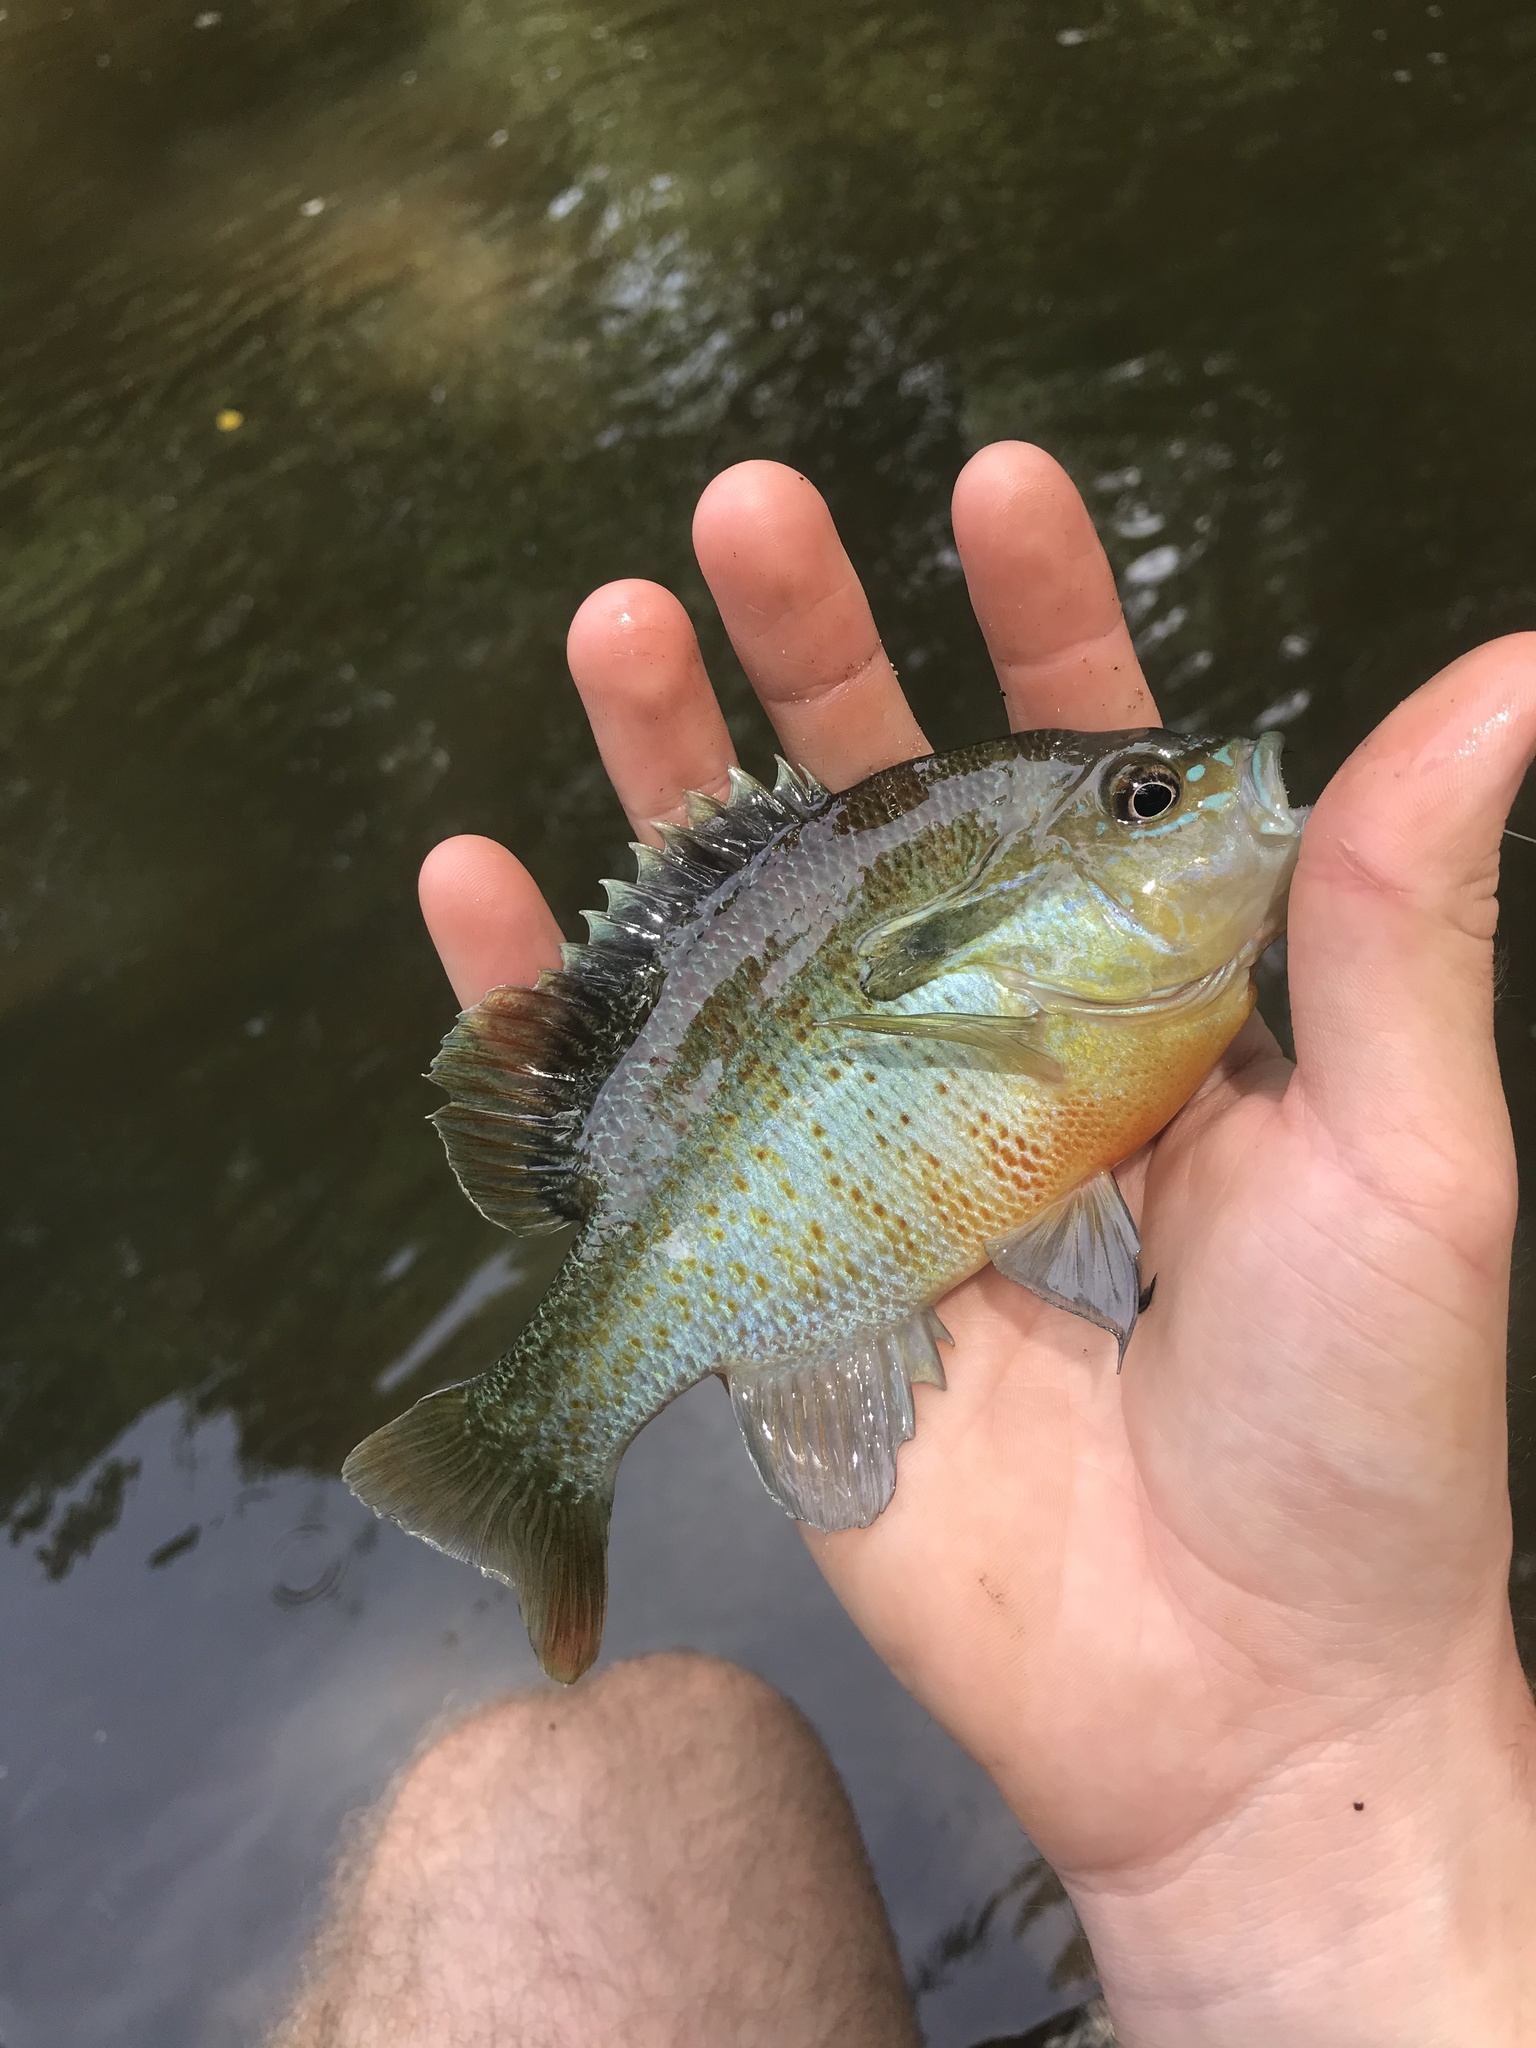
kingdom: Animalia
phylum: Chordata
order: Perciformes
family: Centrarchidae
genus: Lepomis
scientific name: Lepomis auritus
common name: Redbreast sunfish
